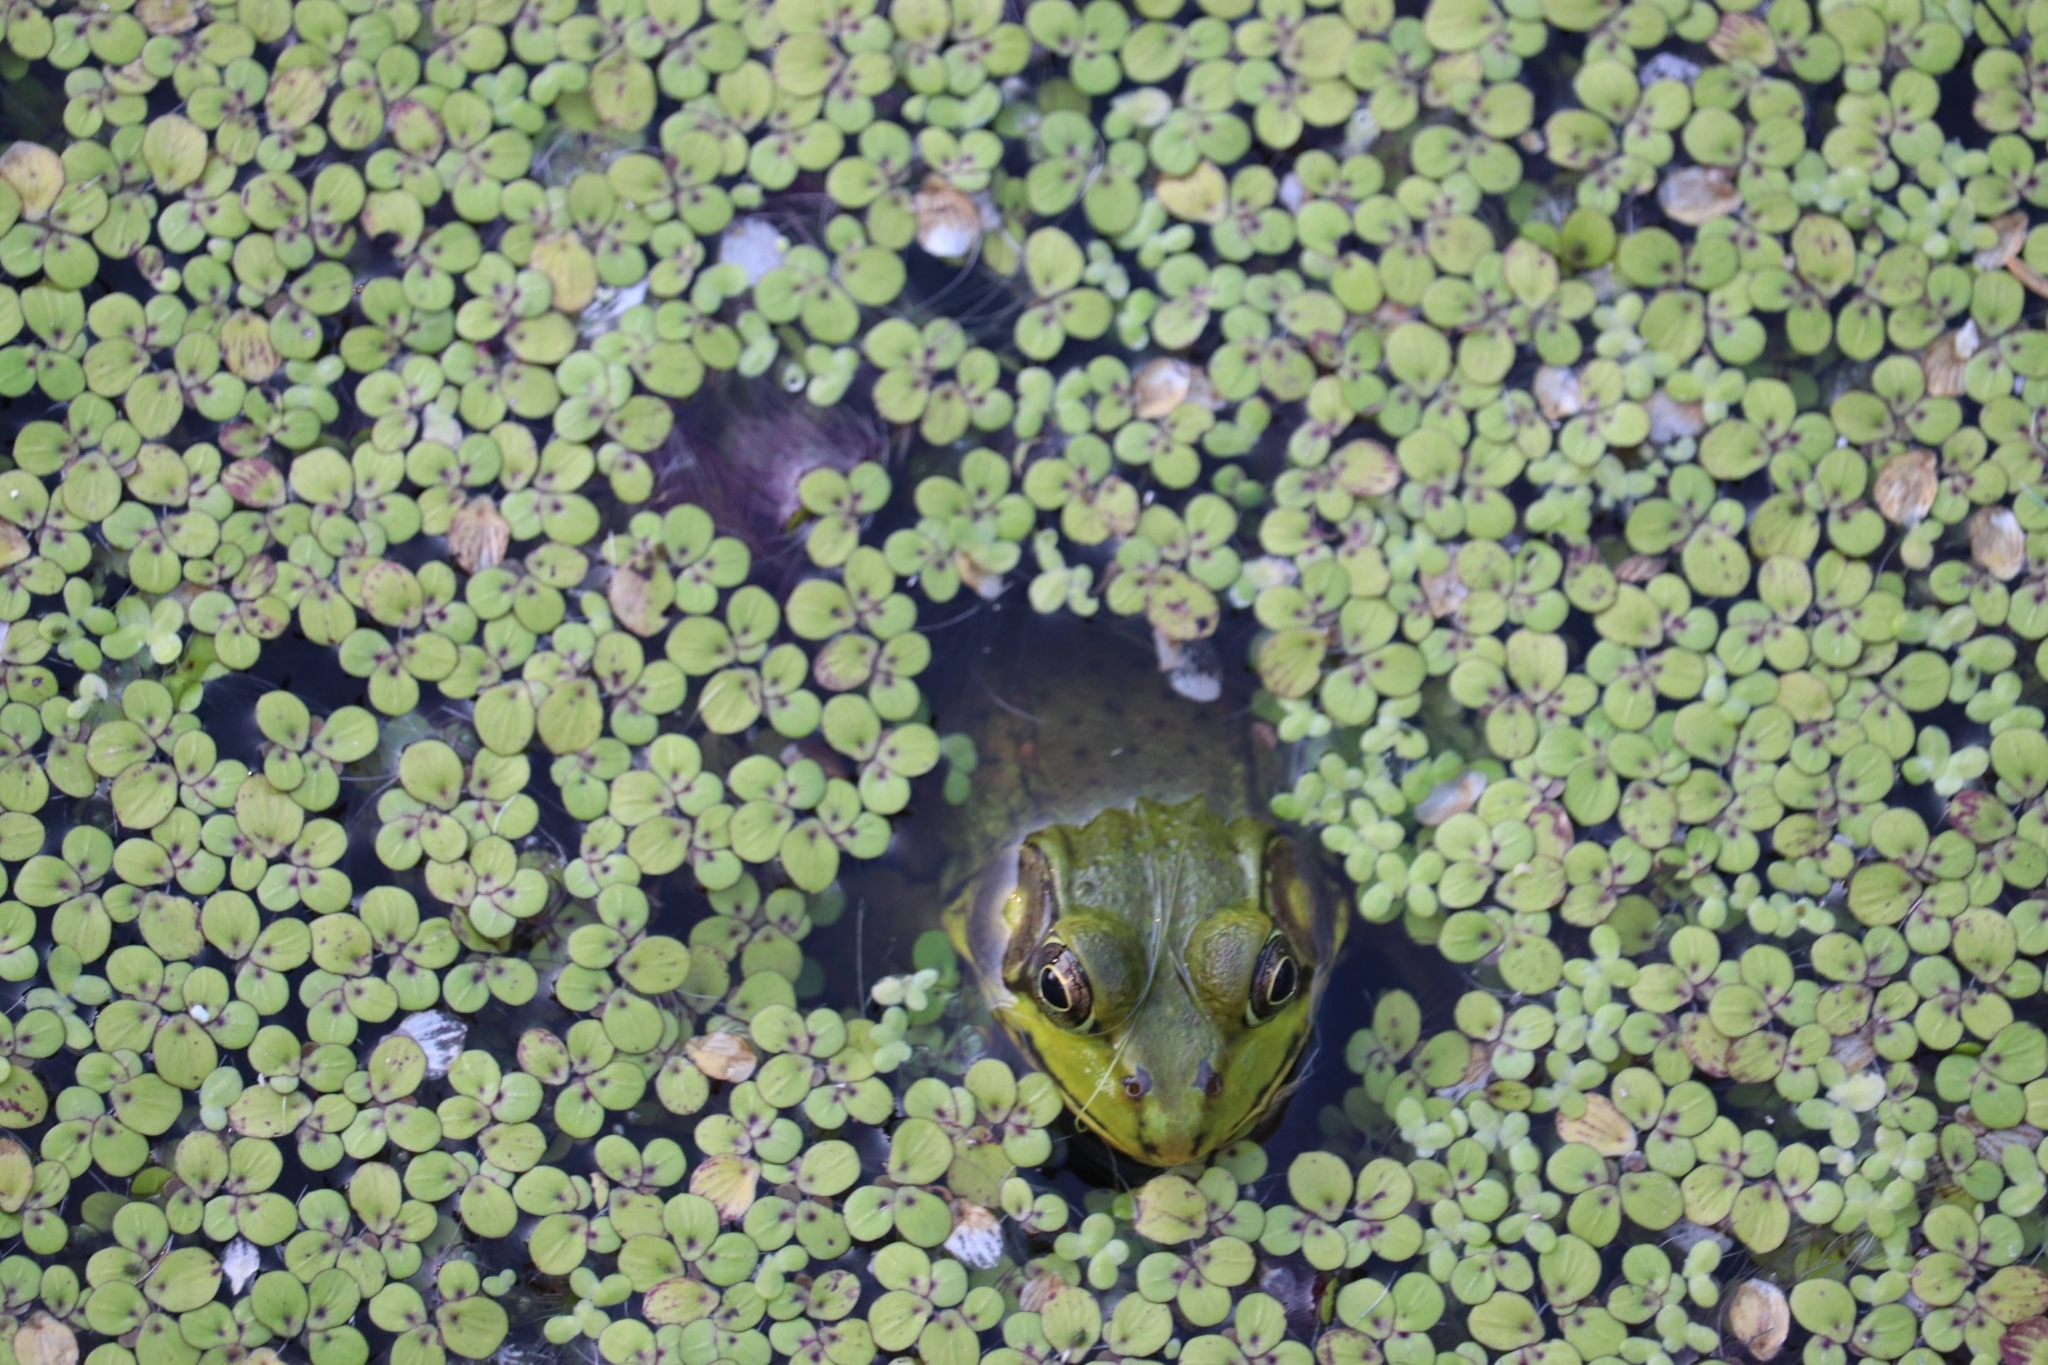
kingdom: Animalia
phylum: Chordata
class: Amphibia
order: Anura
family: Ranidae
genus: Lithobates
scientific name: Lithobates clamitans
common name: Green frog
